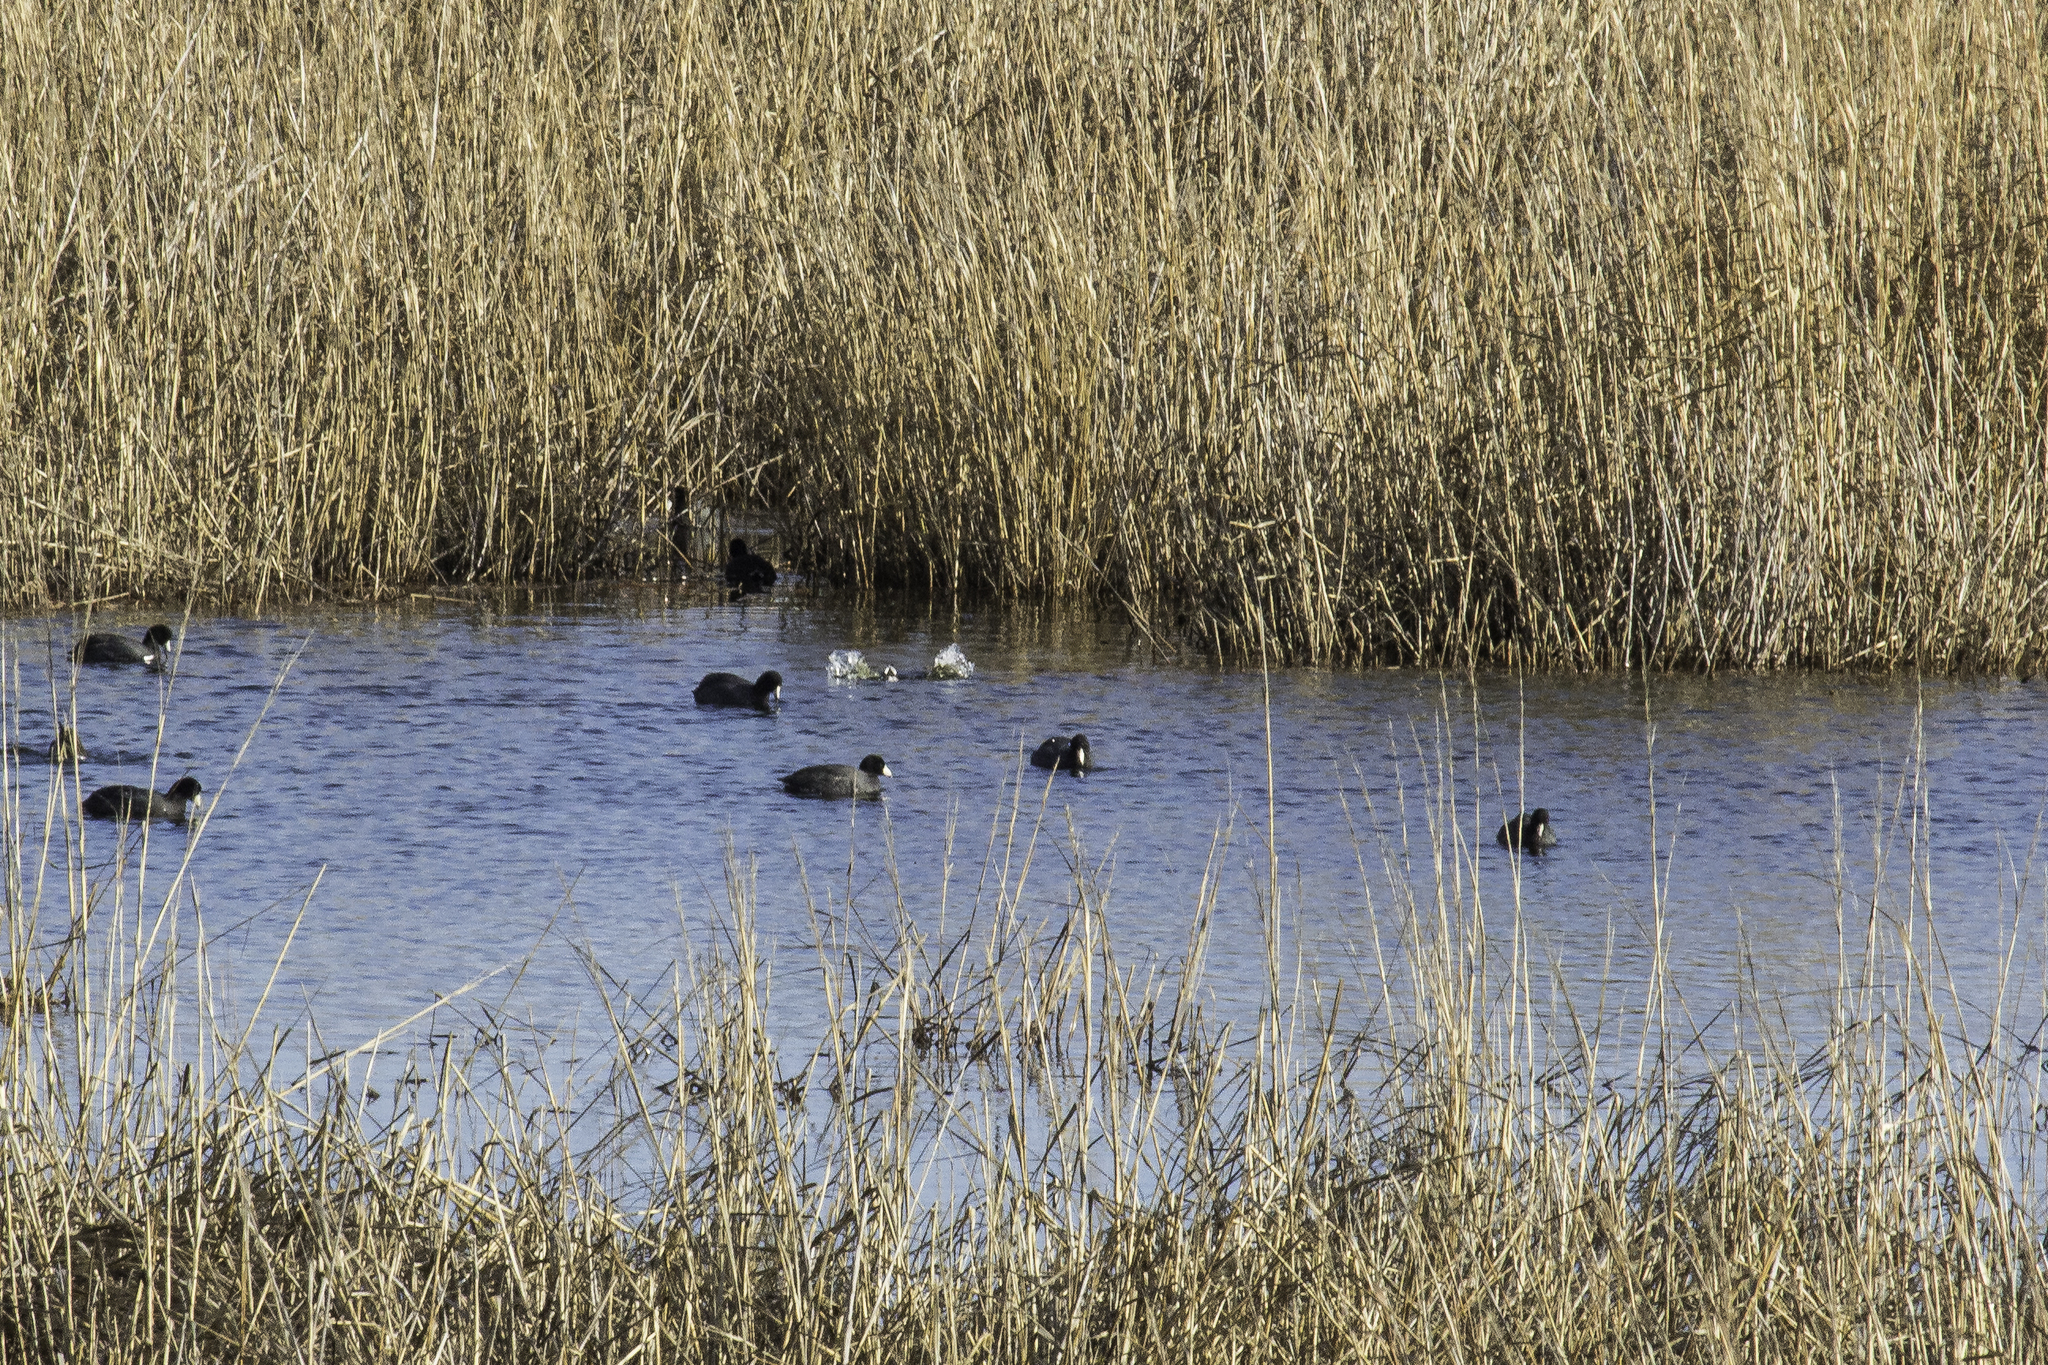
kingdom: Animalia
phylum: Chordata
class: Aves
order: Gruiformes
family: Rallidae
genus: Fulica
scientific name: Fulica americana
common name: American coot
